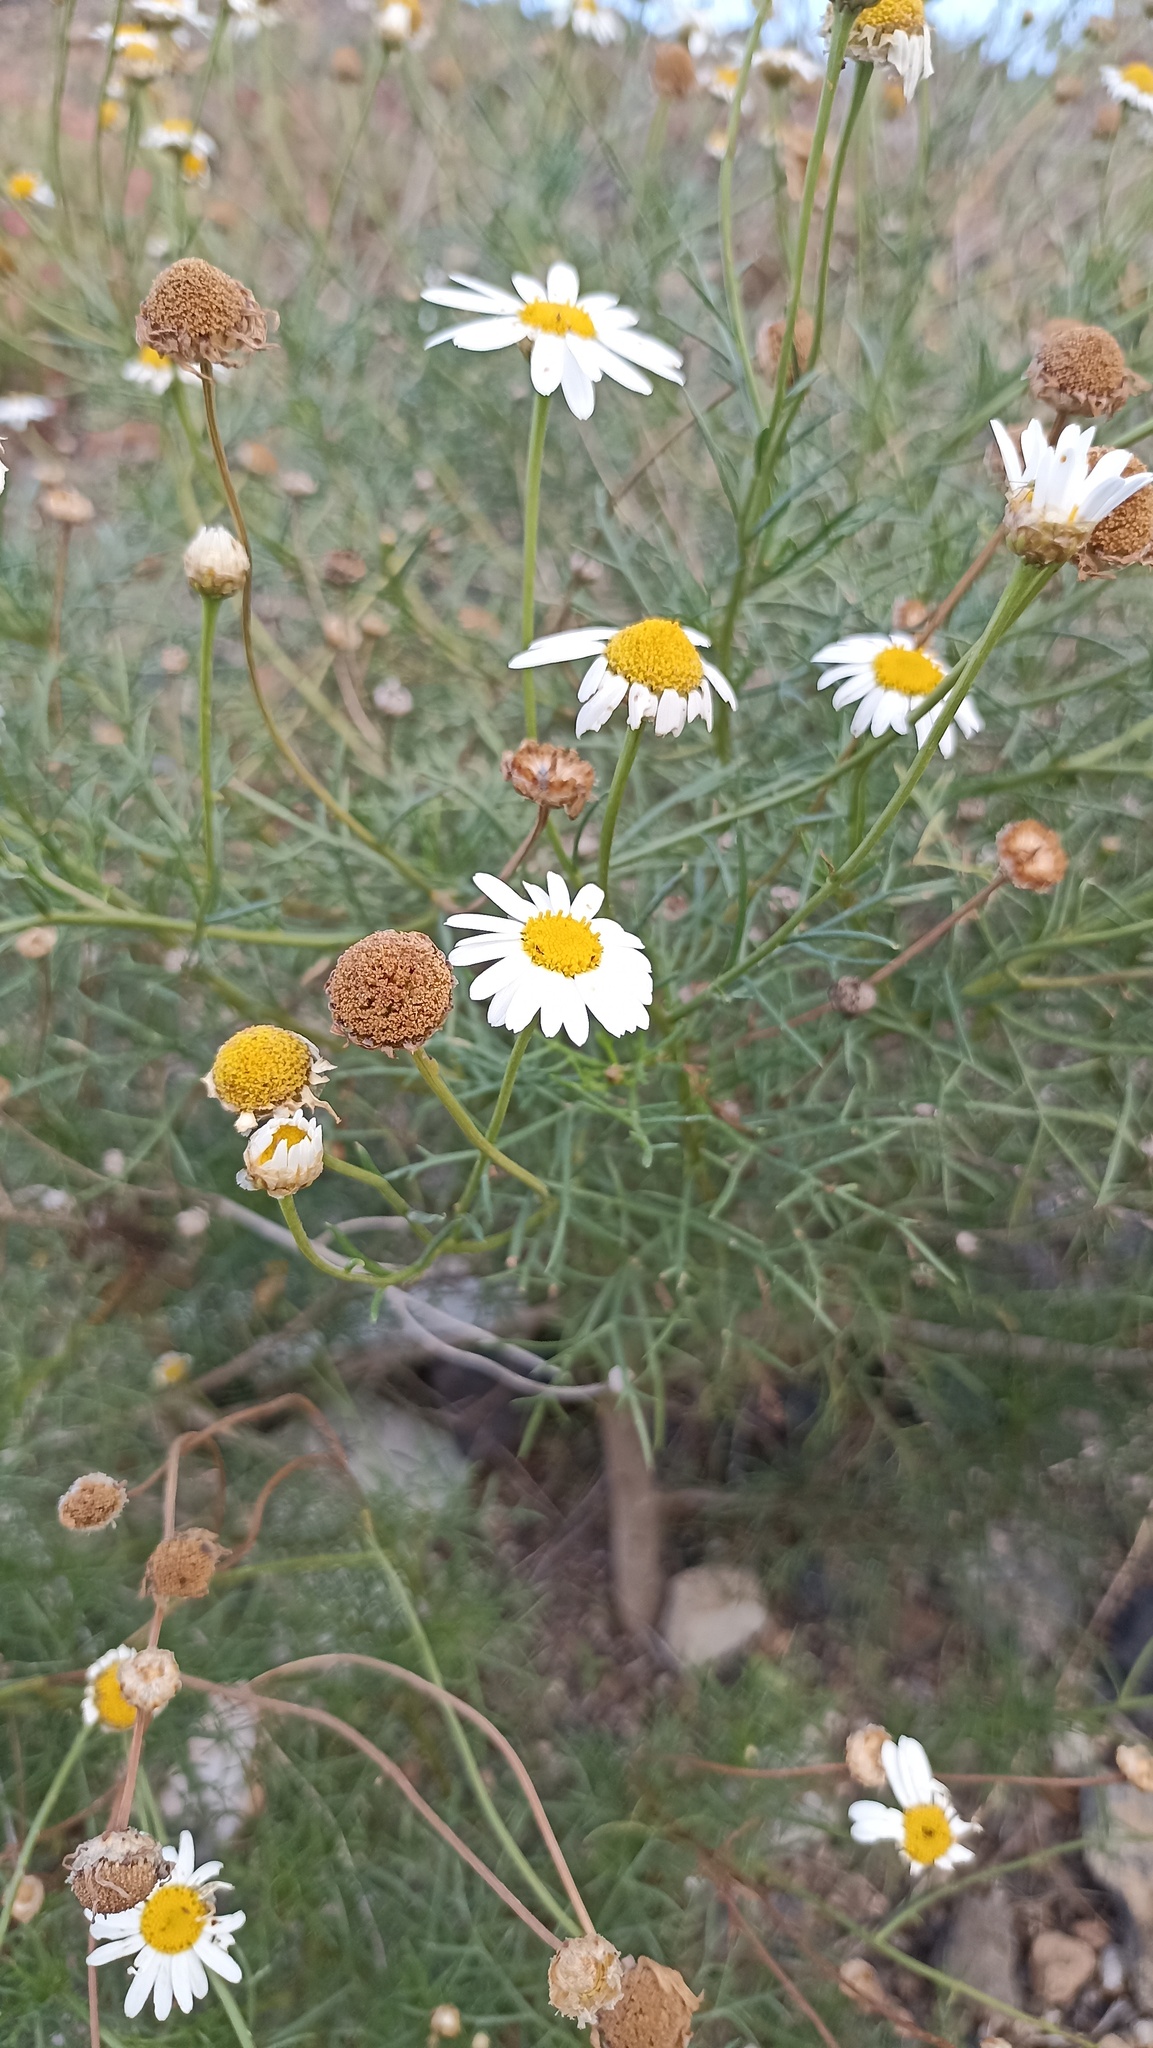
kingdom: Plantae
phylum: Tracheophyta
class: Magnoliopsida
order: Asterales
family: Asteraceae
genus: Argyranthemum
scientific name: Argyranthemum frutescens
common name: Paris daisy
